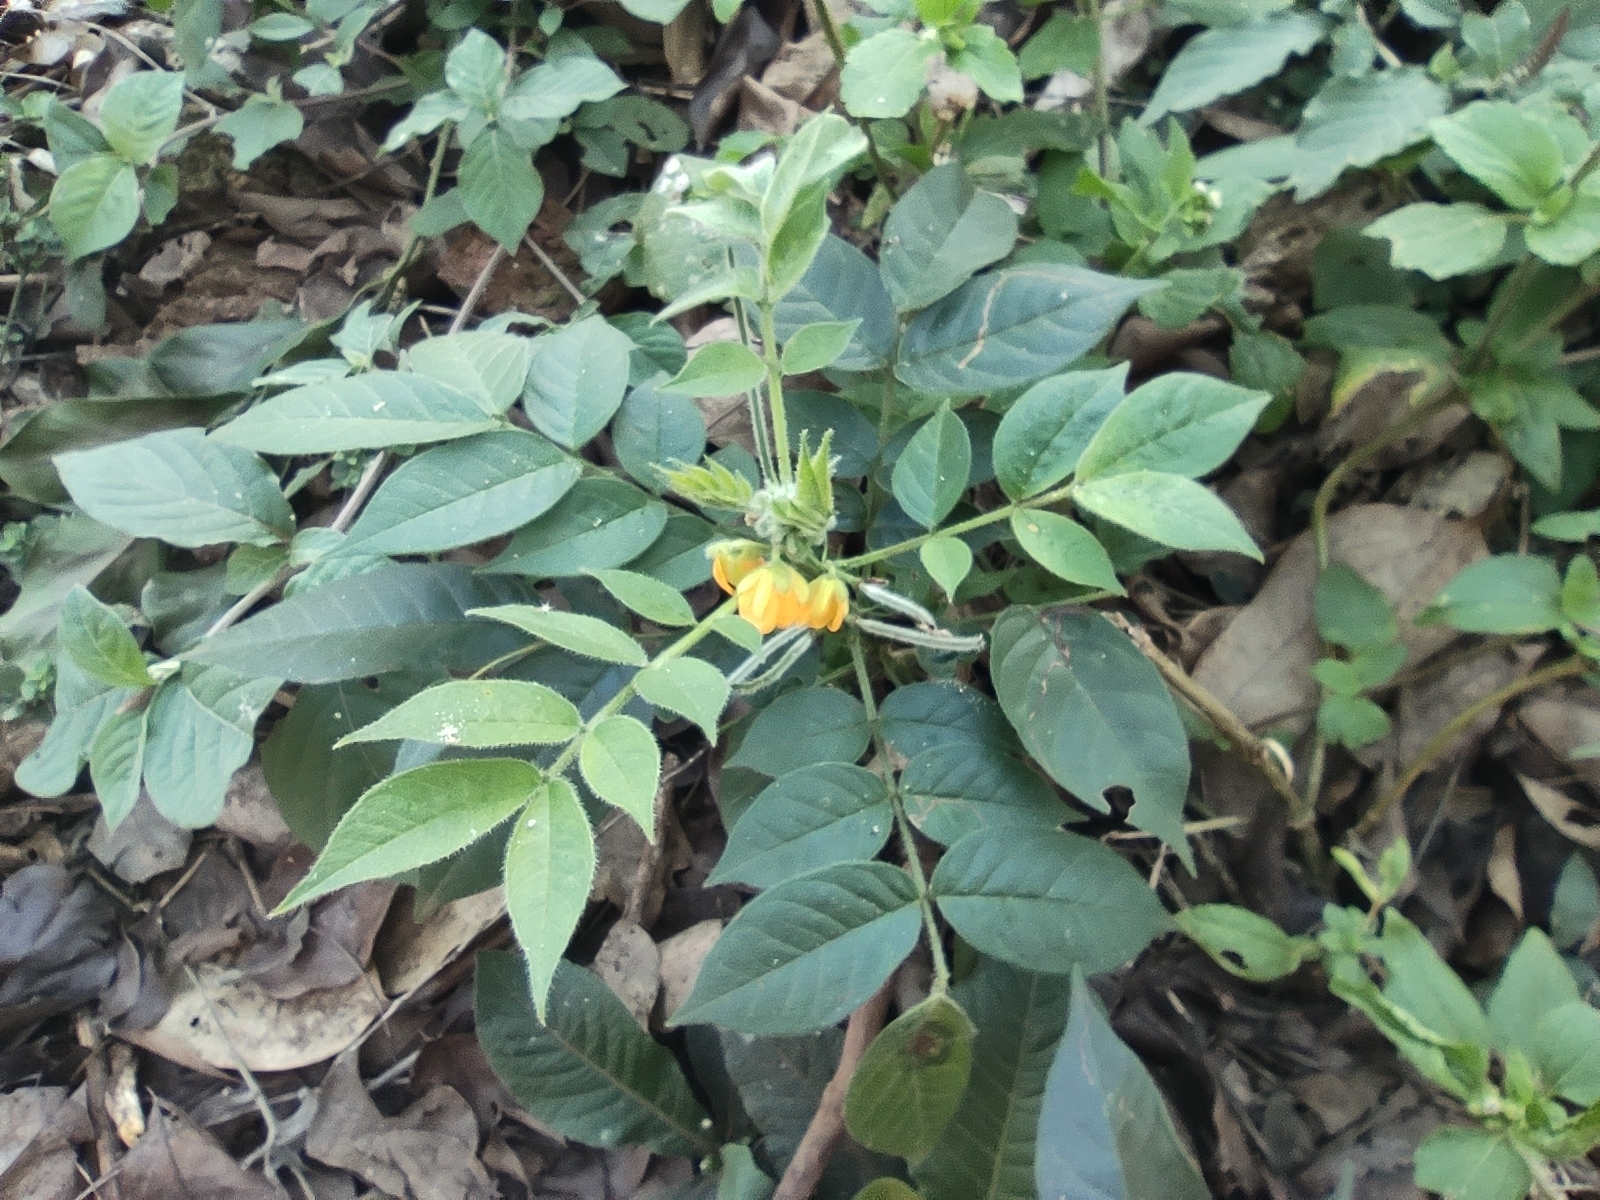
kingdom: Plantae
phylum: Tracheophyta
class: Magnoliopsida
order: Fabales
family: Fabaceae
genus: Senna
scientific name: Senna hirsuta
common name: Woolly senna
